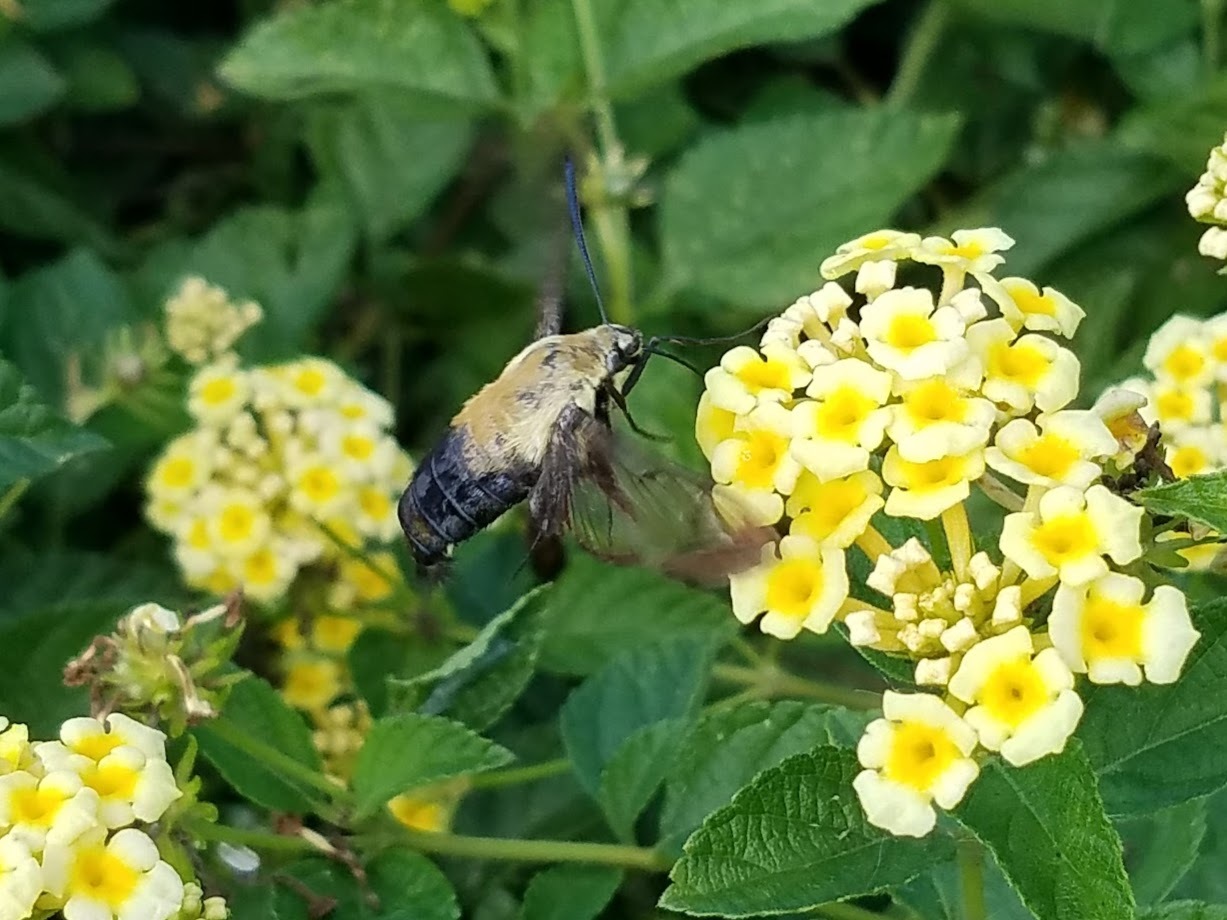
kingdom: Animalia
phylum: Arthropoda
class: Insecta
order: Lepidoptera
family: Sphingidae
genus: Hemaris
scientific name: Hemaris diffinis
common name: Bumblebee moth
